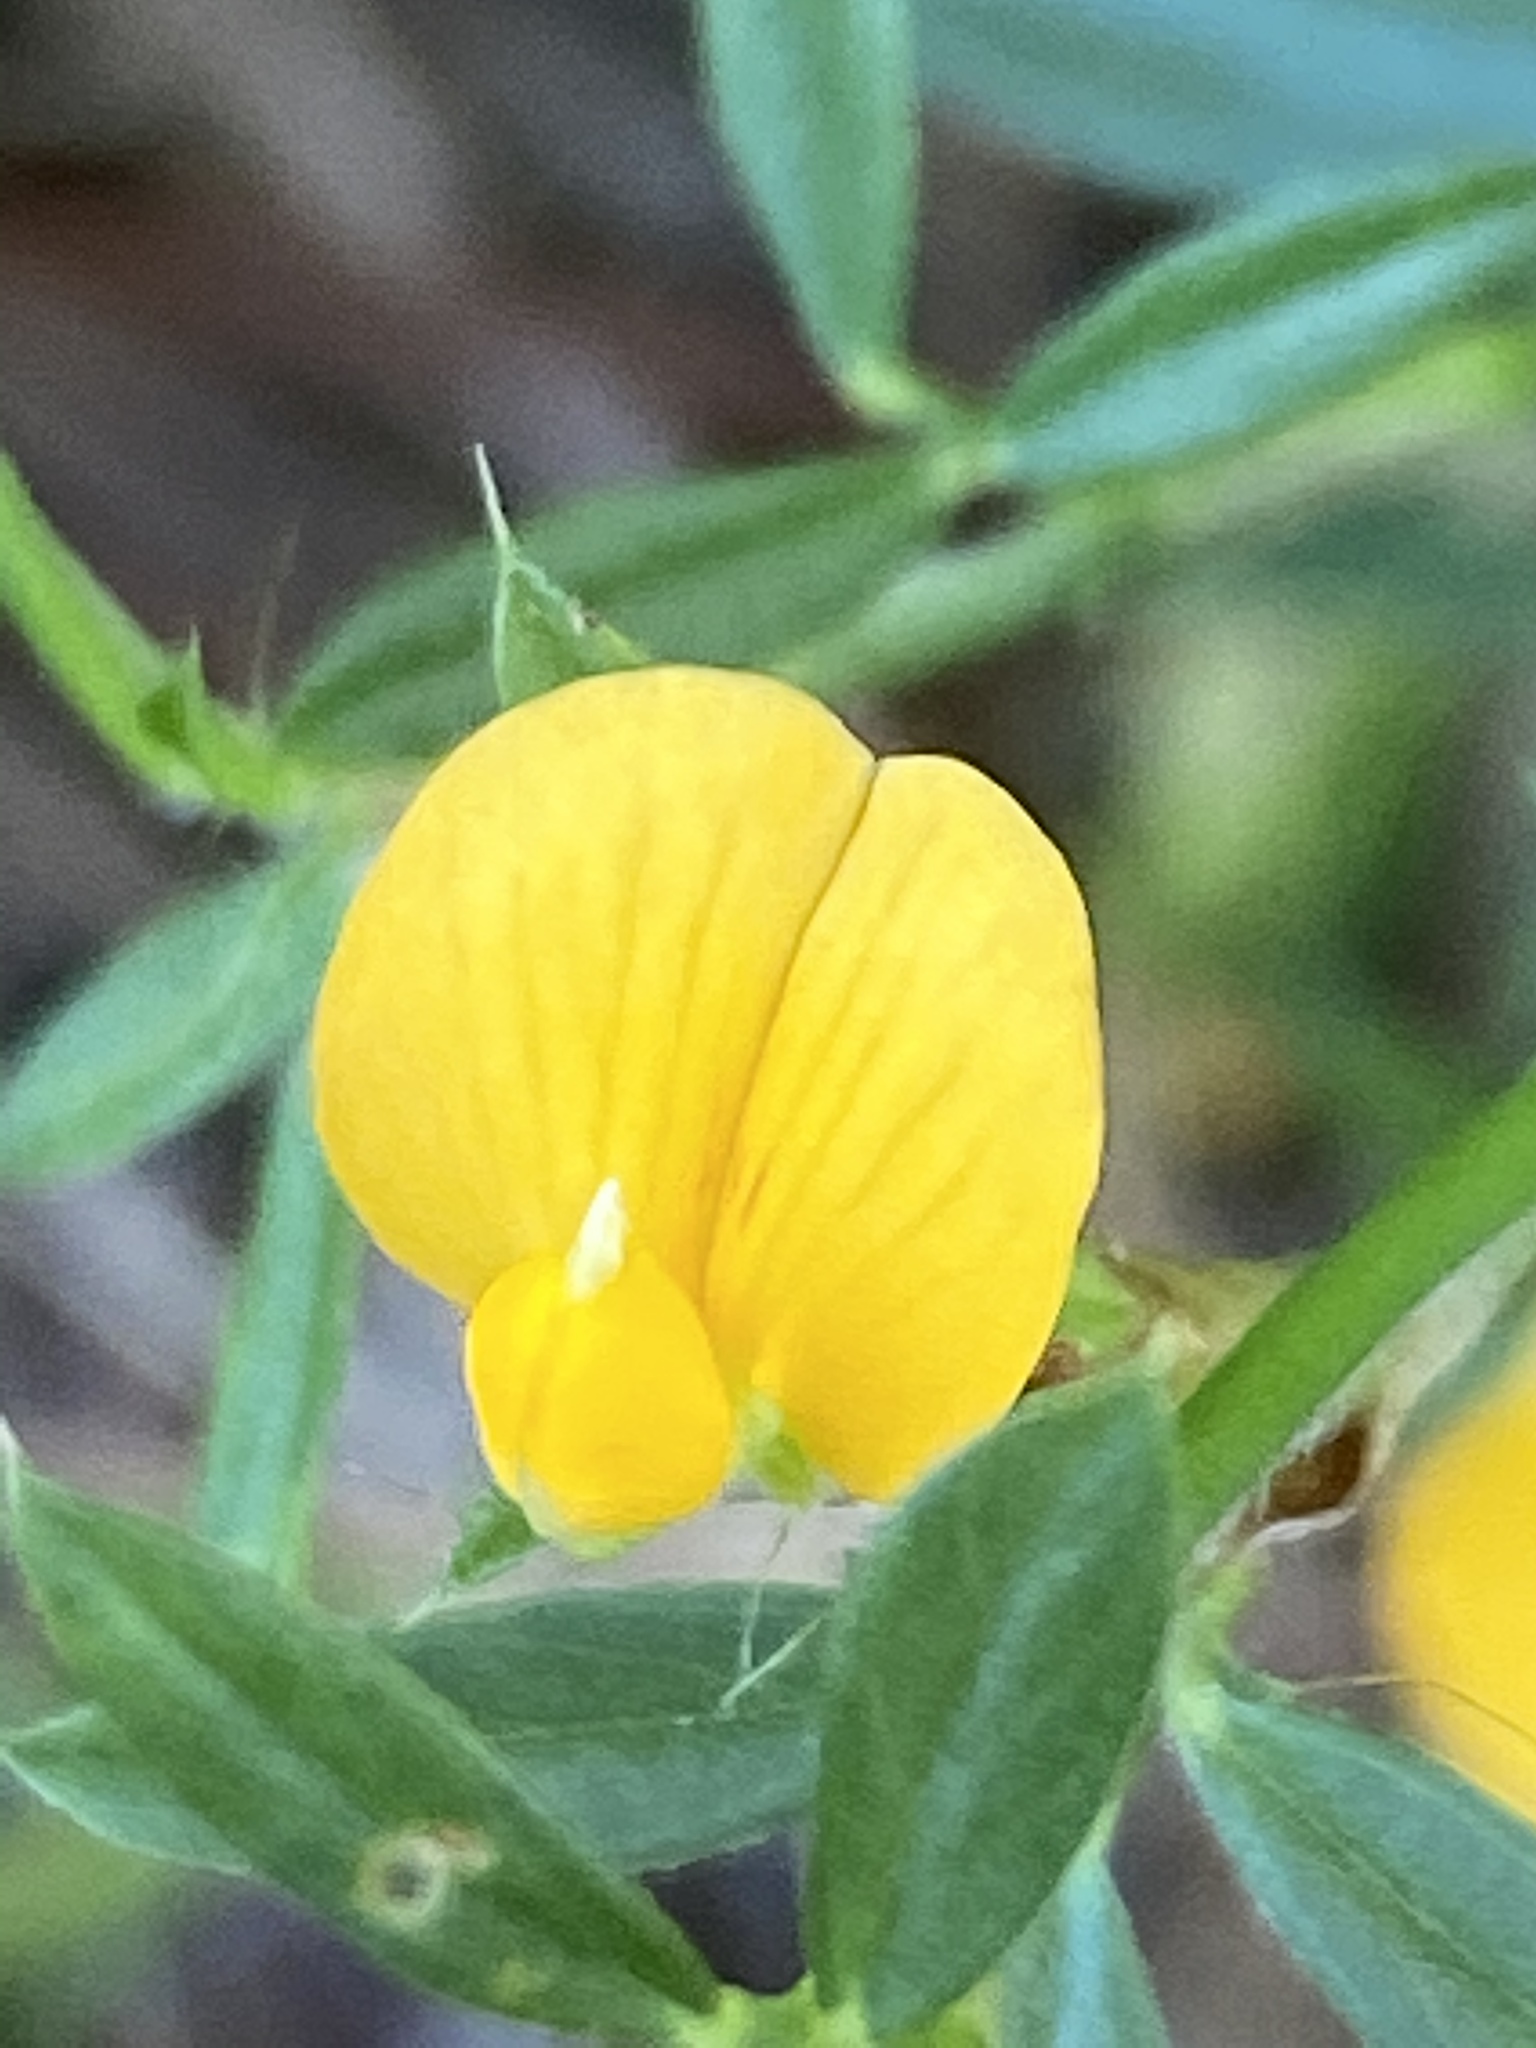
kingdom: Plantae
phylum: Tracheophyta
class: Magnoliopsida
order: Fabales
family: Fabaceae
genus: Stylosanthes
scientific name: Stylosanthes biflora
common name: Two-flower pencil-flower
